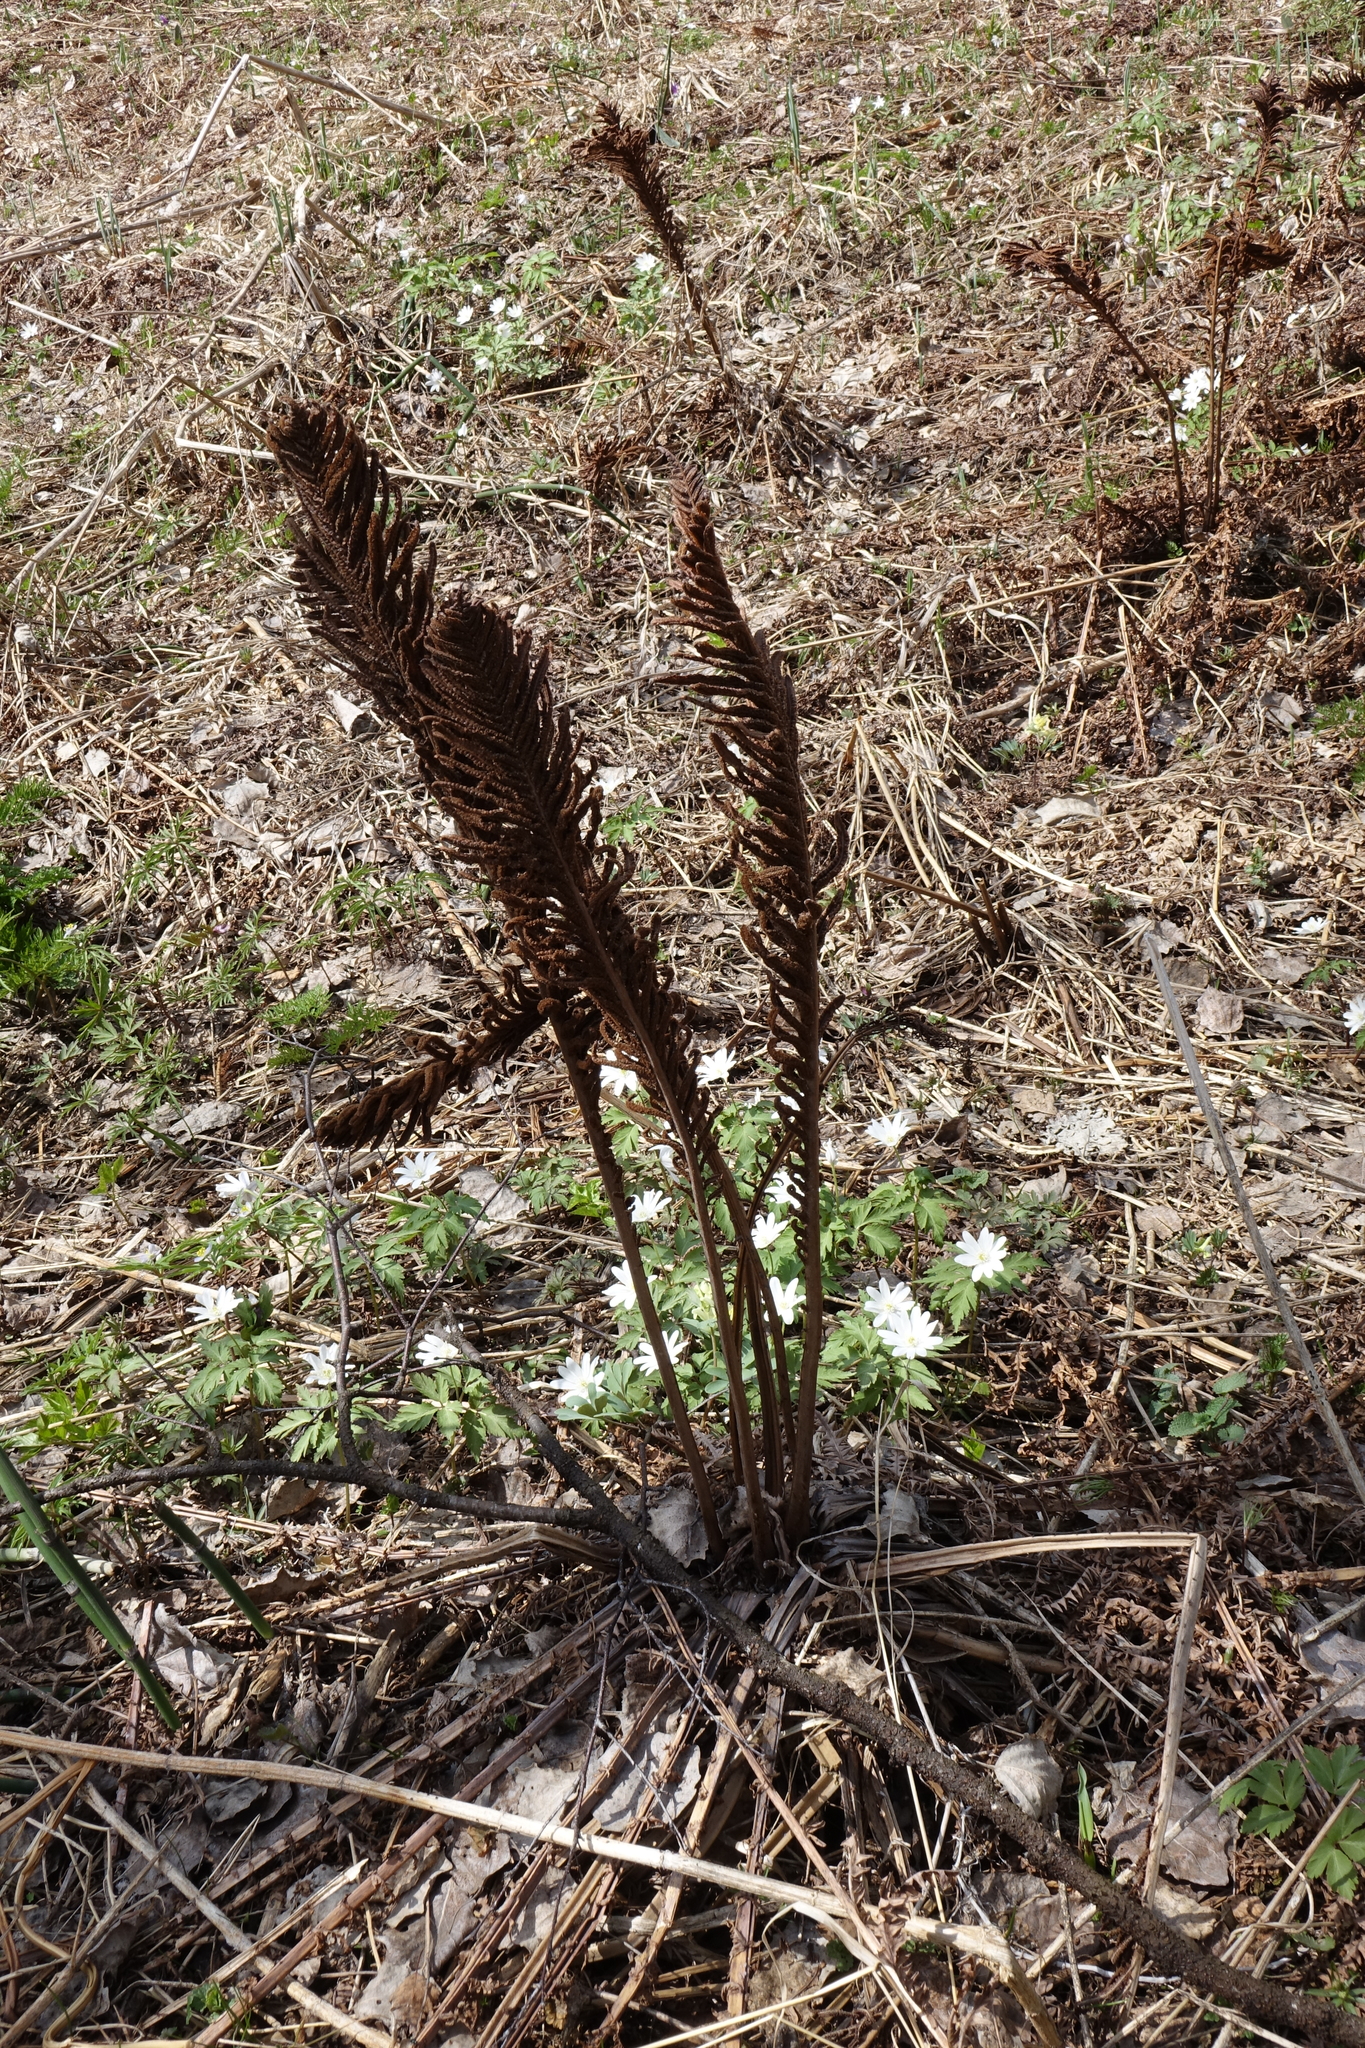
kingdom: Plantae
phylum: Tracheophyta
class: Polypodiopsida
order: Polypodiales
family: Onocleaceae
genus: Matteuccia
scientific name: Matteuccia struthiopteris
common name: Ostrich fern
